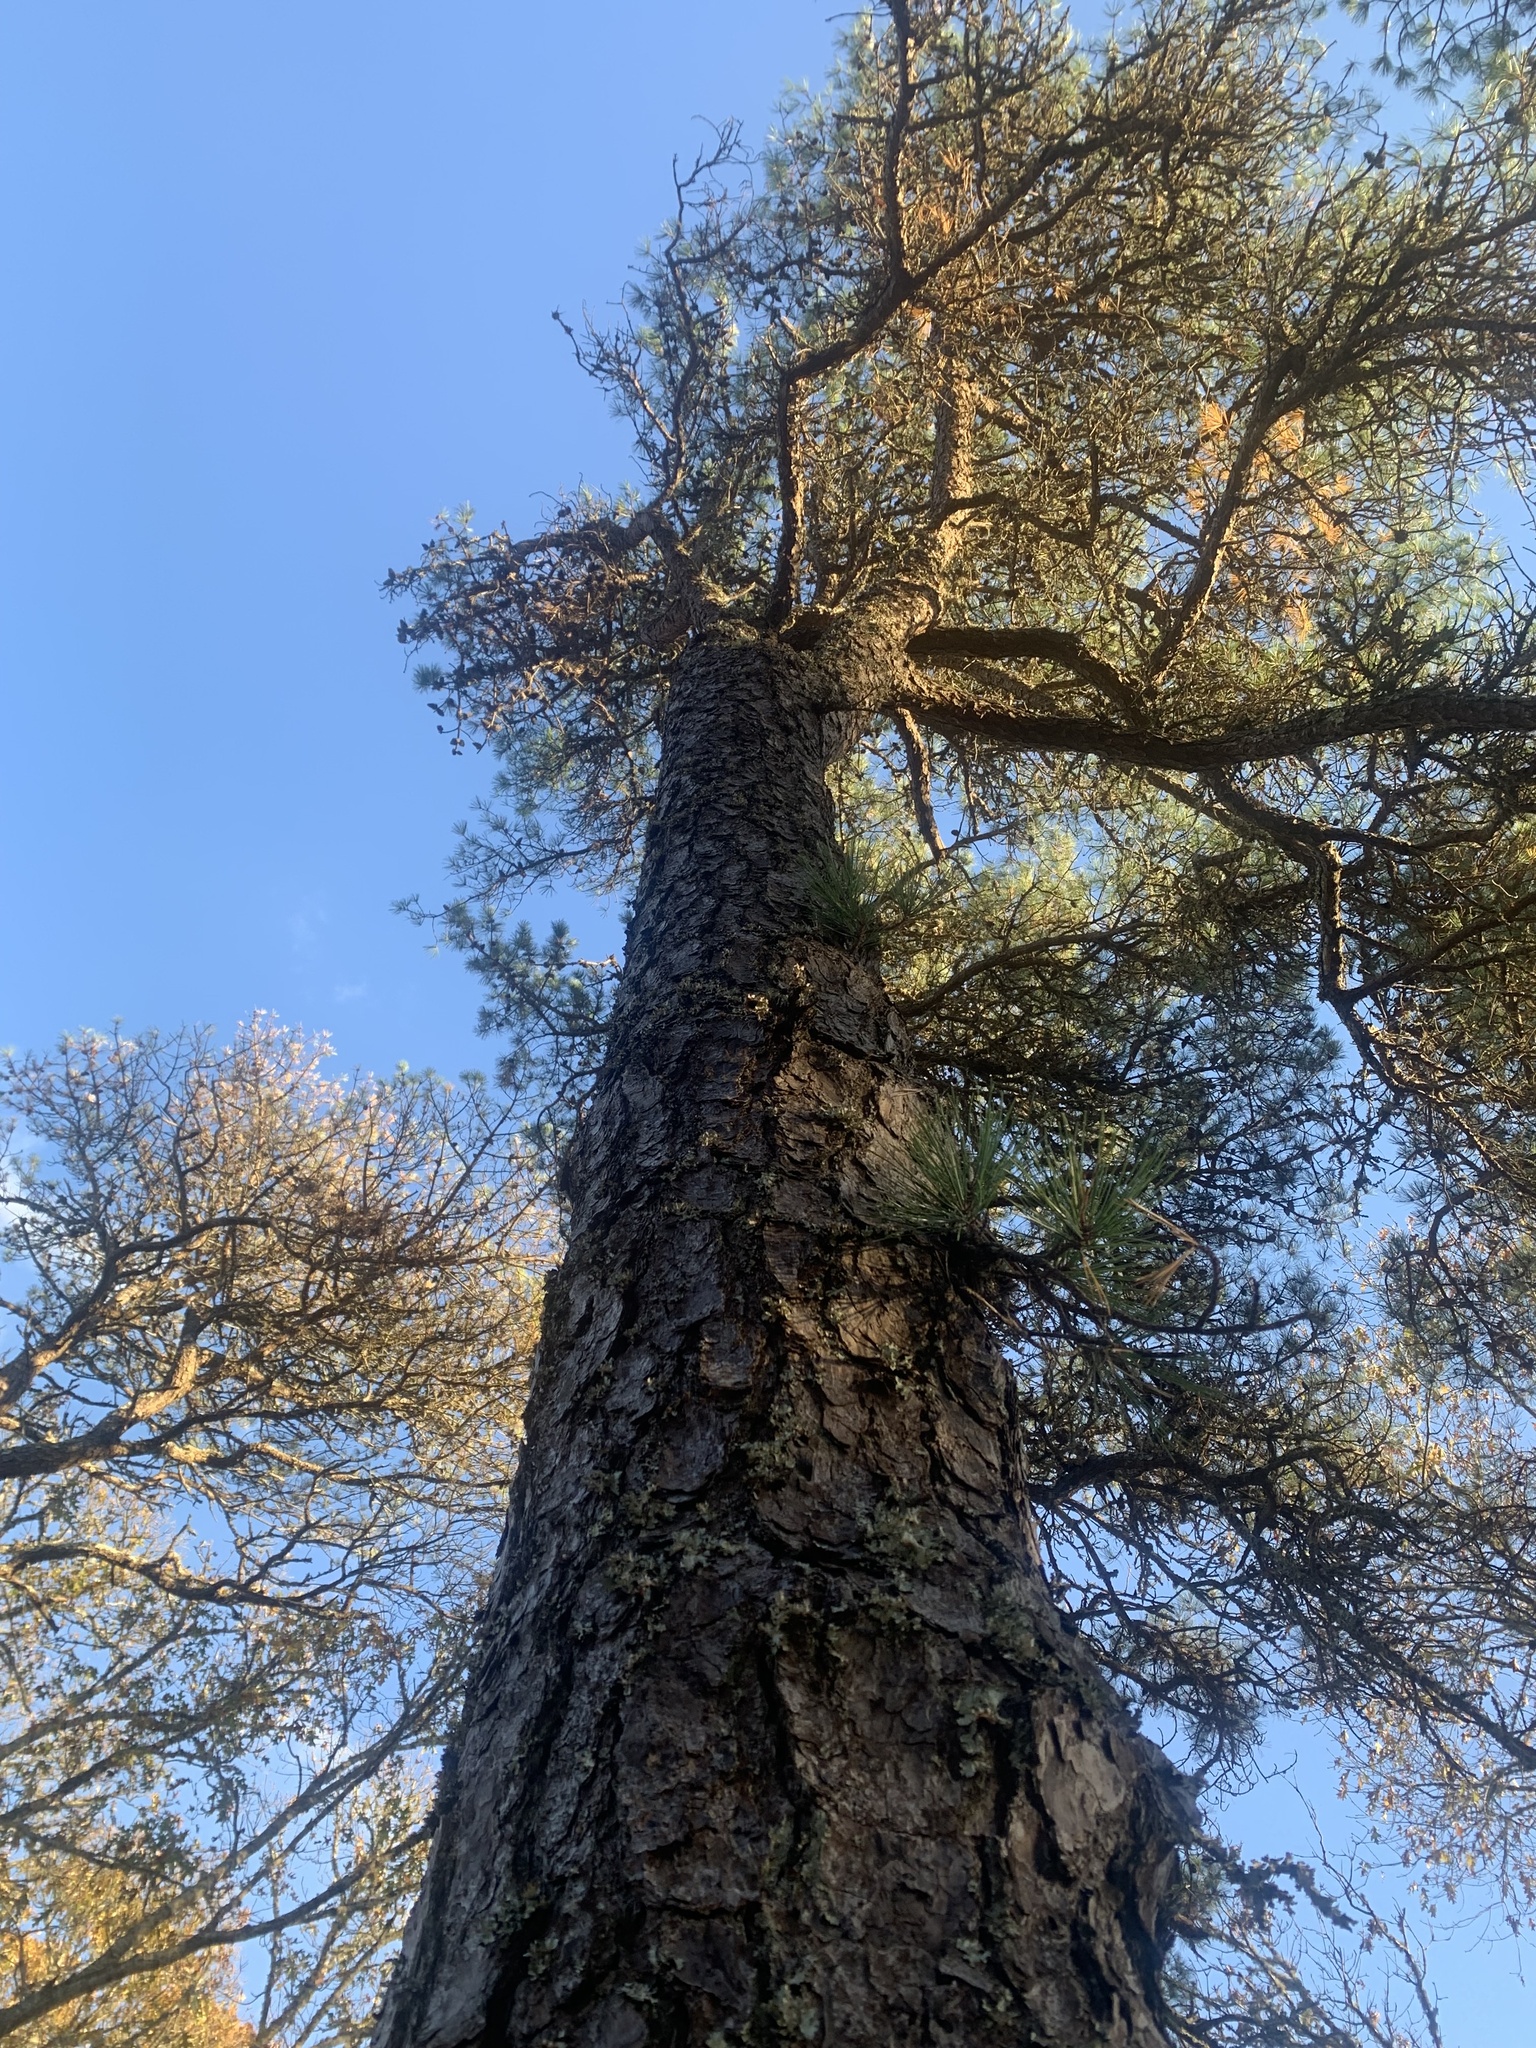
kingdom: Plantae
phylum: Tracheophyta
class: Pinopsida
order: Pinales
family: Pinaceae
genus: Pinus
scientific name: Pinus rigida
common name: Pitch pine
